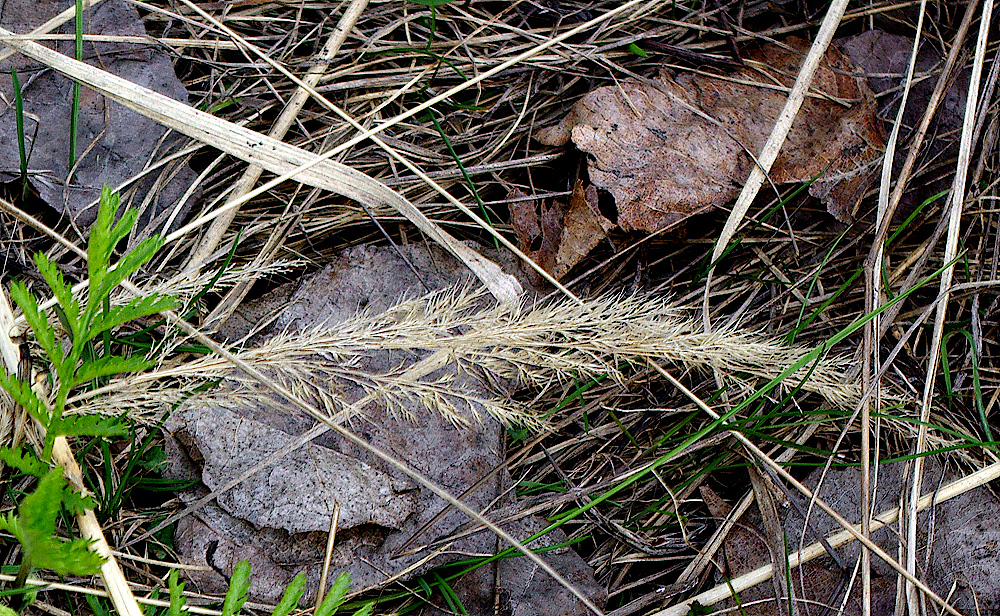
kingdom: Plantae
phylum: Tracheophyta
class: Liliopsida
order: Poales
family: Poaceae
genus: Calamagrostis
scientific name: Calamagrostis epigejos
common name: Wood small-reed
